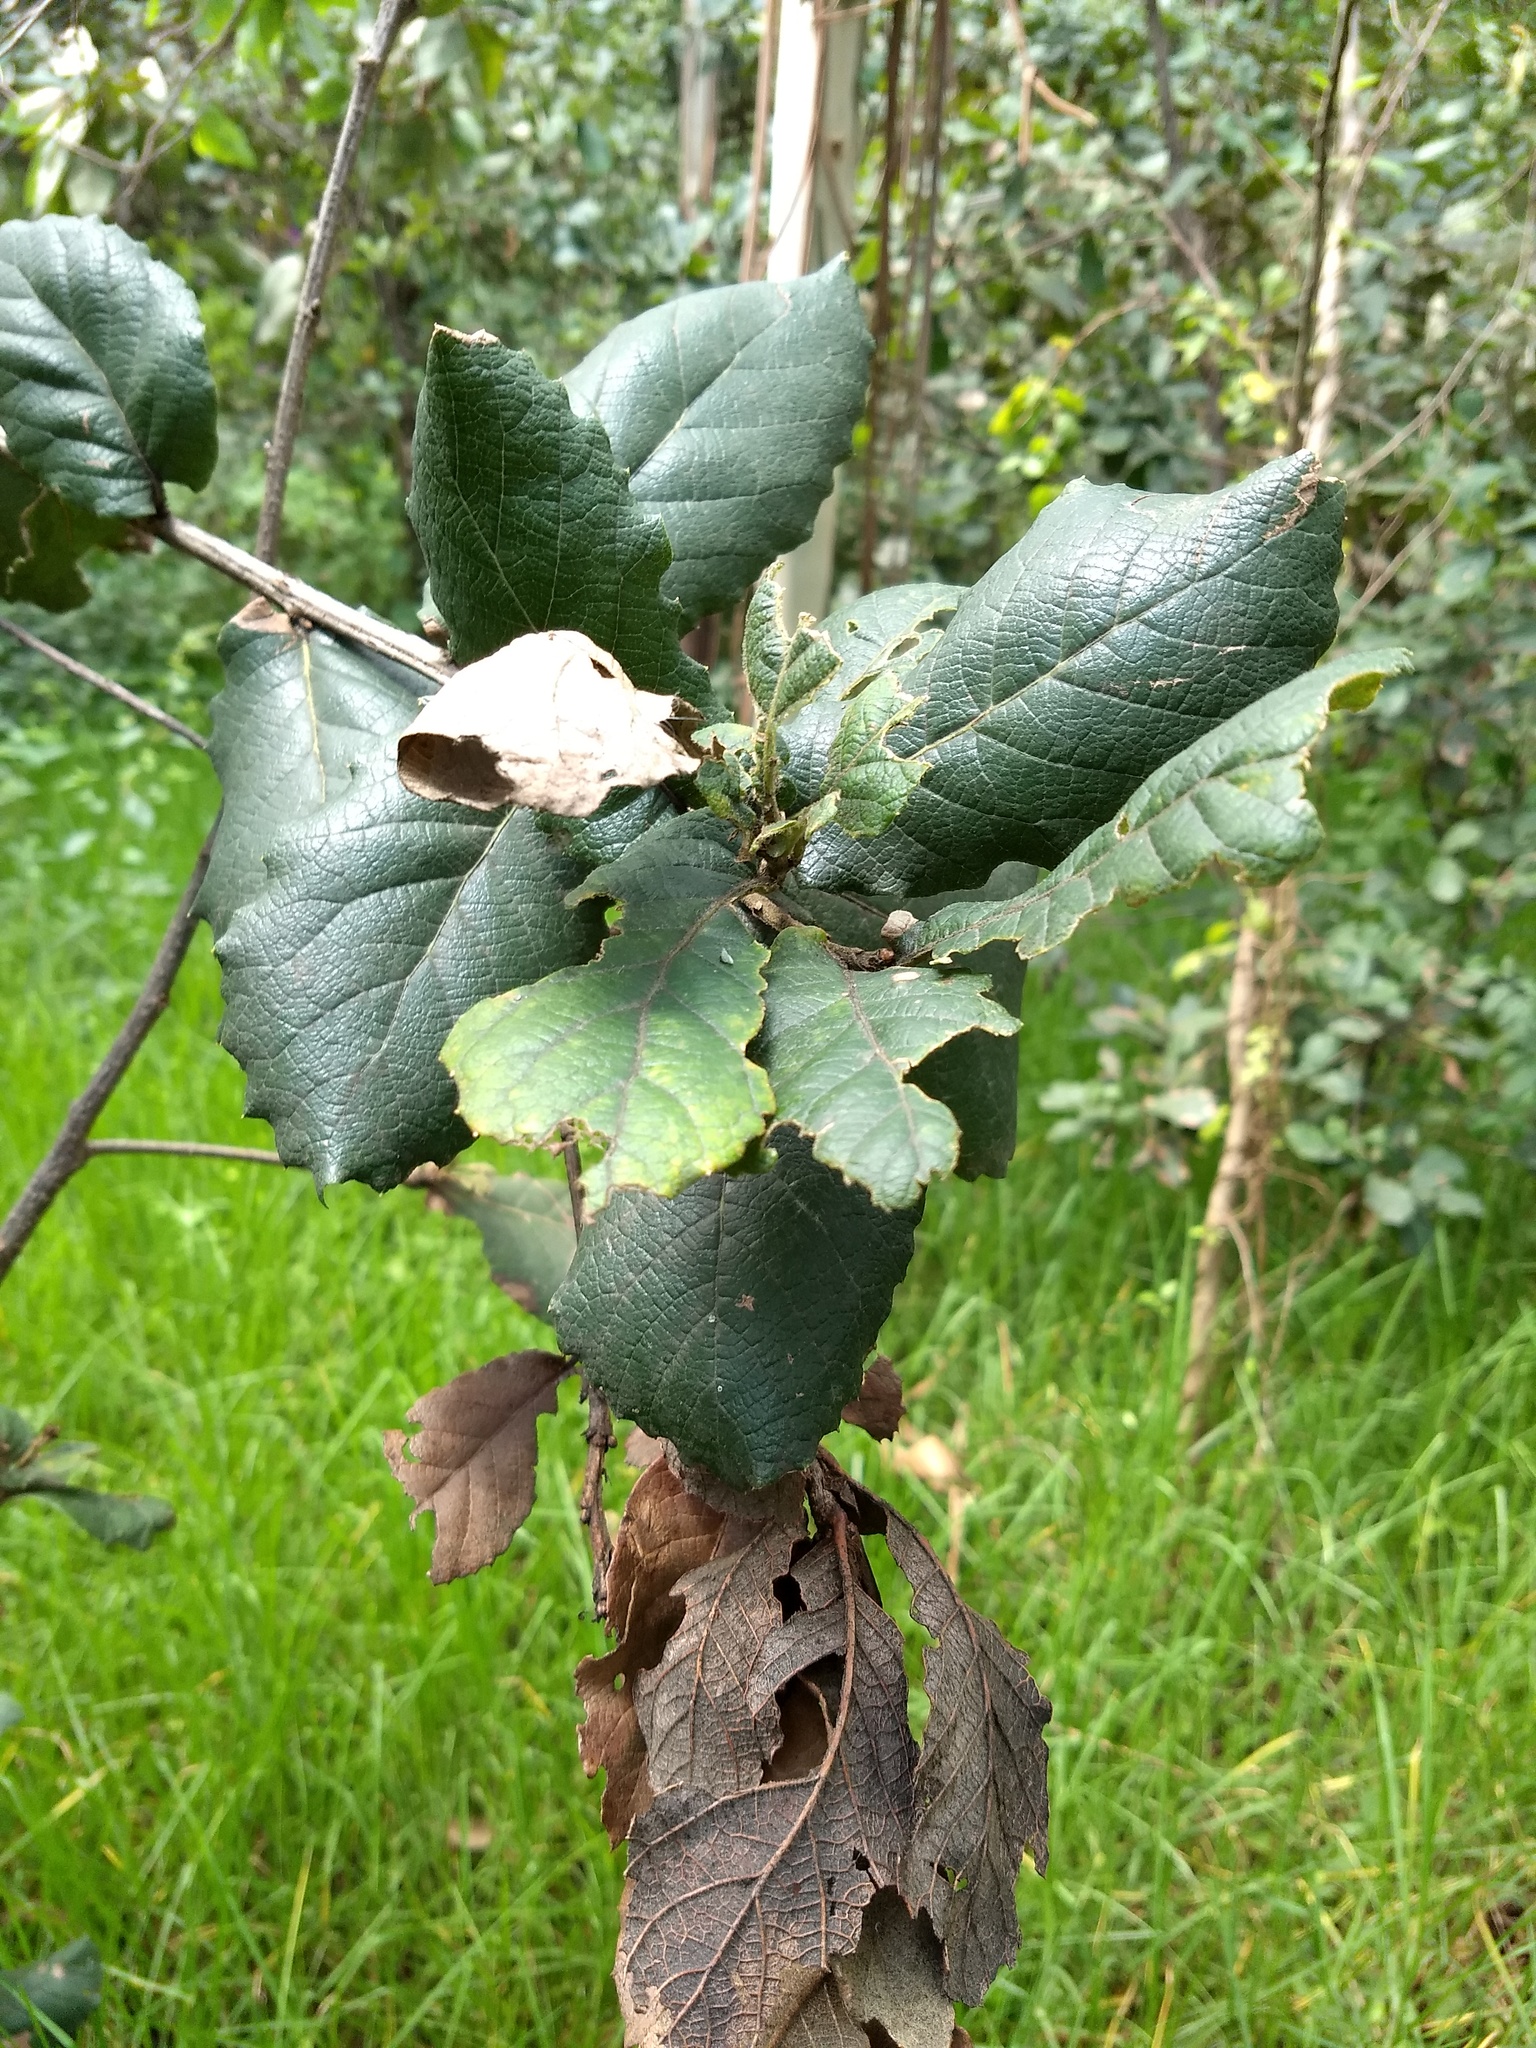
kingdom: Plantae
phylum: Tracheophyta
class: Magnoliopsida
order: Fagales
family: Fagaceae
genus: Quercus
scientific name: Quercus rugosa
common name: Netleaf oak
